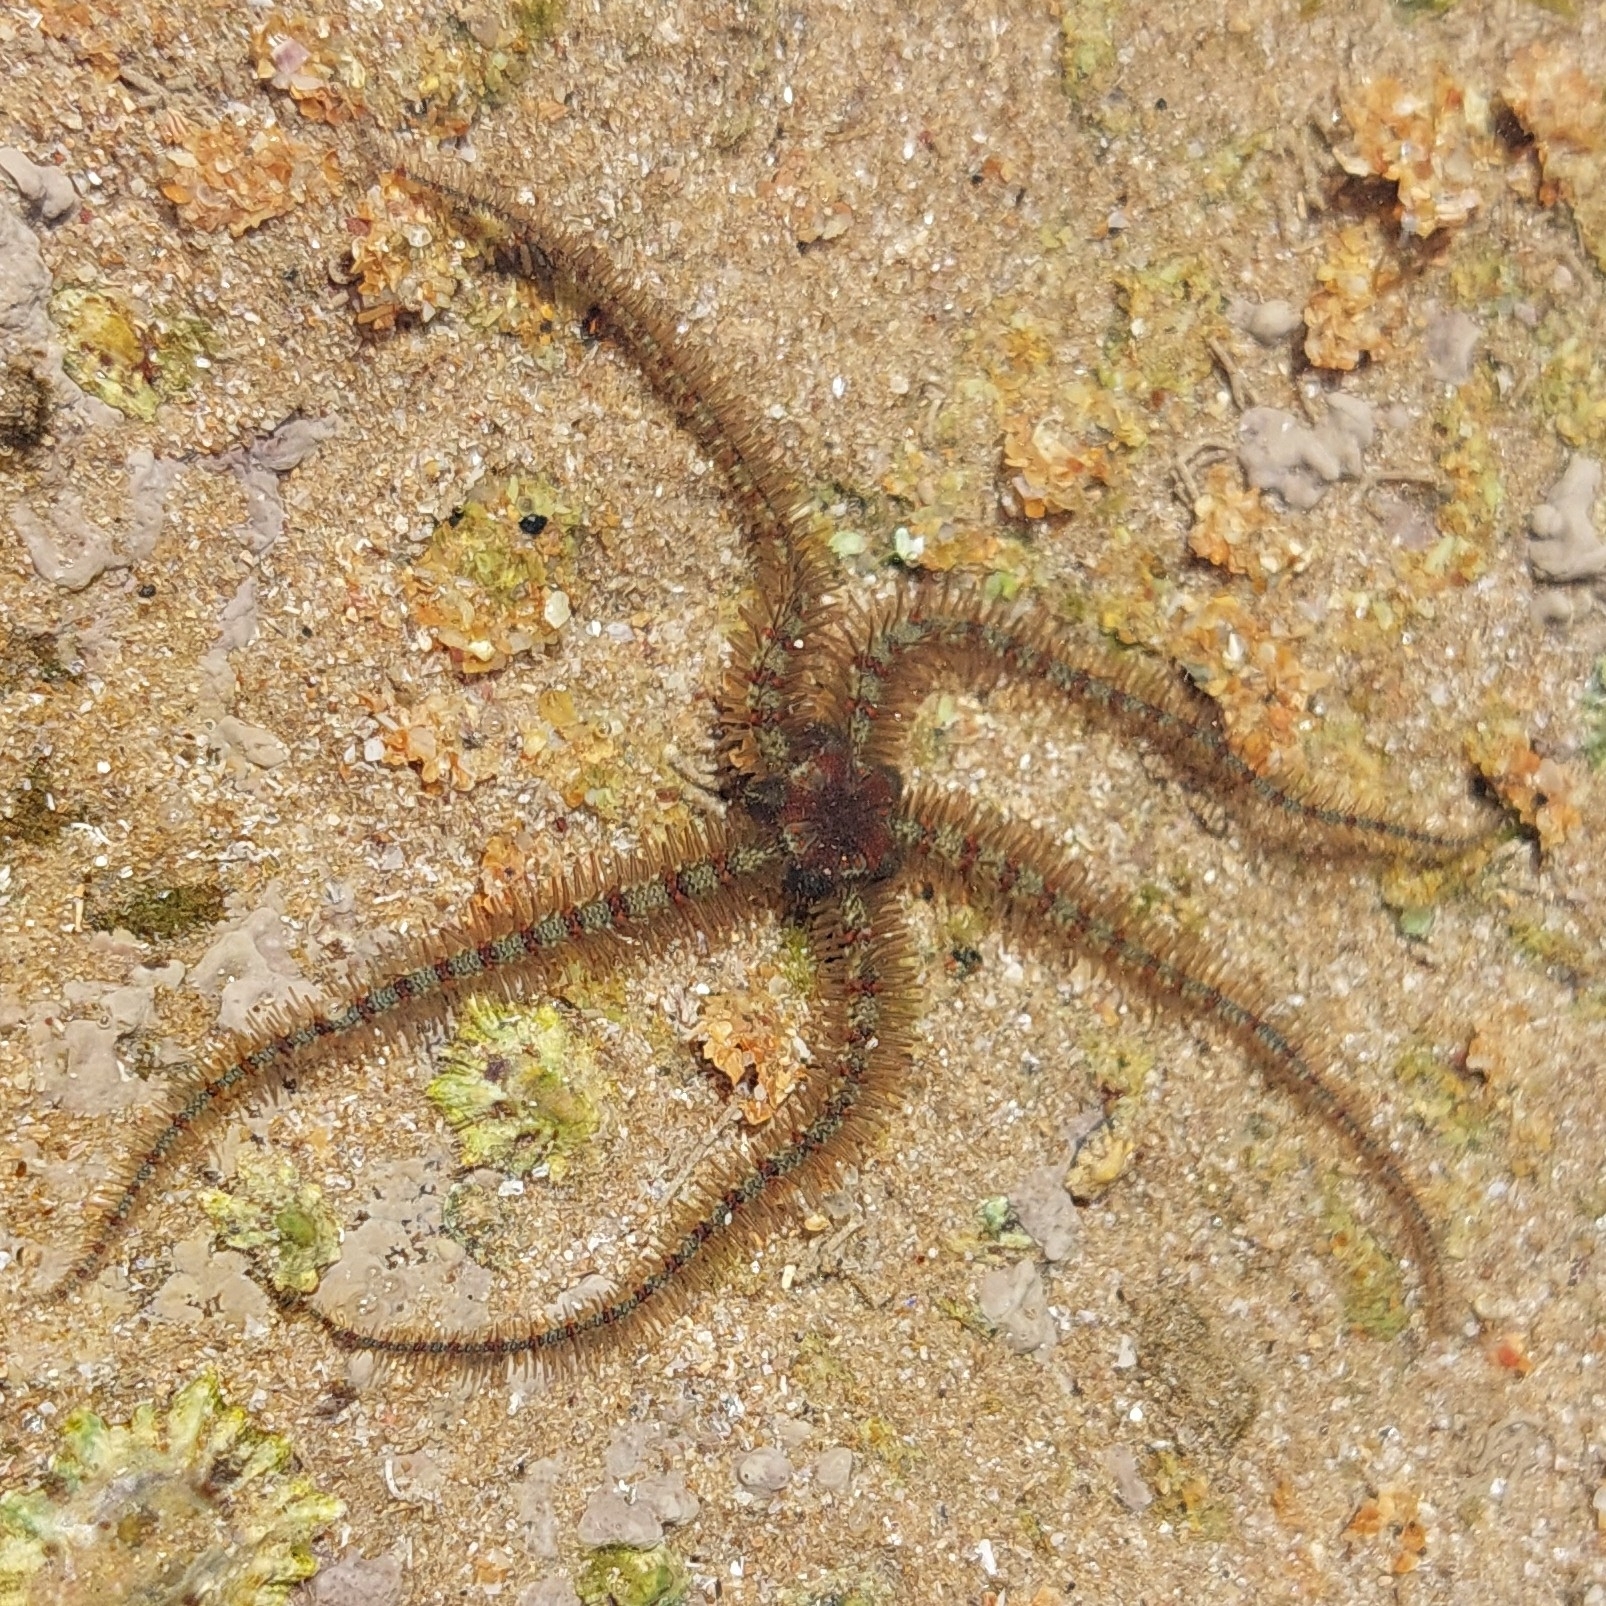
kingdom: Animalia
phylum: Echinodermata
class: Ophiuroidea
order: Amphilepidida
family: Ophiotrichidae
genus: Ophiothrix
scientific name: Ophiothrix fragilis
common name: Common brittlestar
